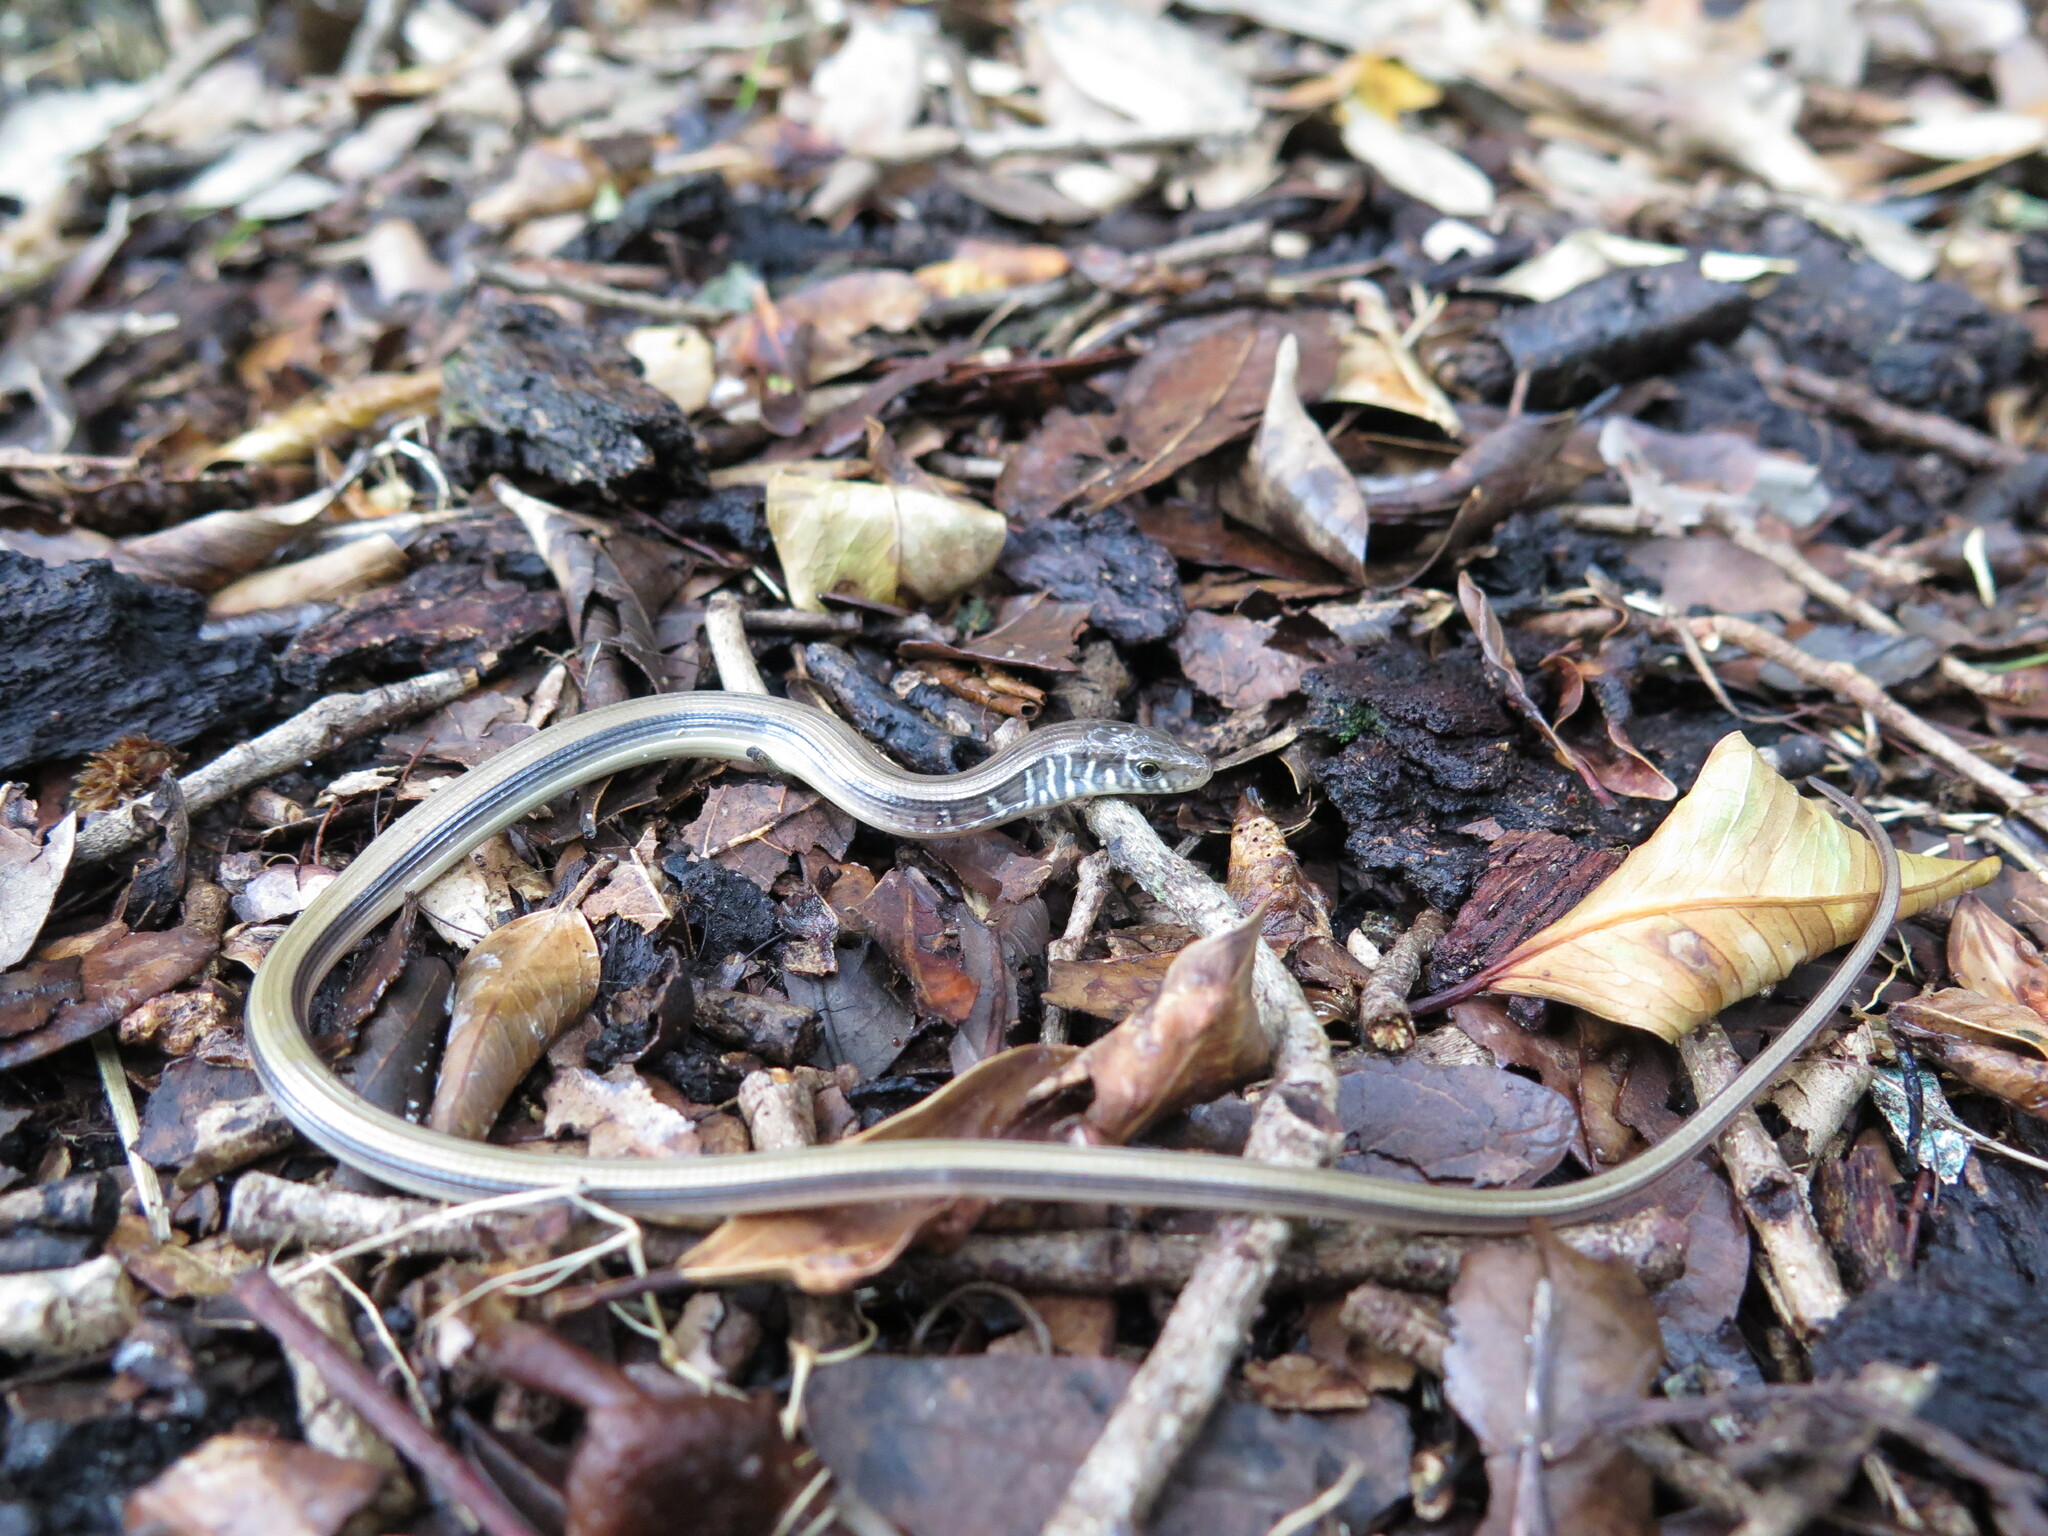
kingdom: Animalia
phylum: Chordata
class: Squamata
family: Anguidae
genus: Ophisaurus
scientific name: Ophisaurus ventralis
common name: Eastern glass lizard
